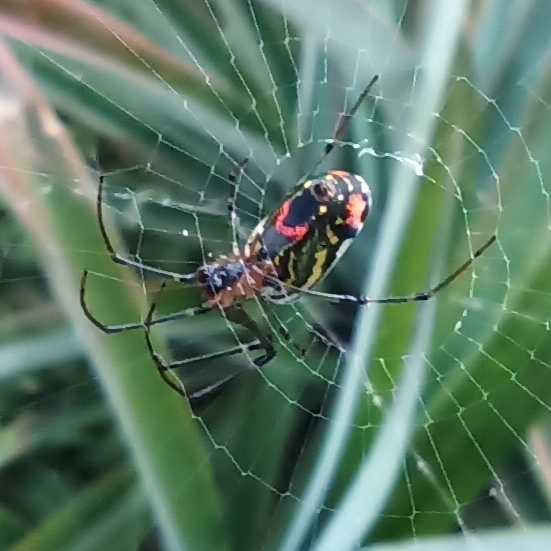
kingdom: Animalia
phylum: Arthropoda
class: Arachnida
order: Araneae
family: Tetragnathidae
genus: Leucauge
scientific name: Leucauge mariana
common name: Longjawed orb weavers
